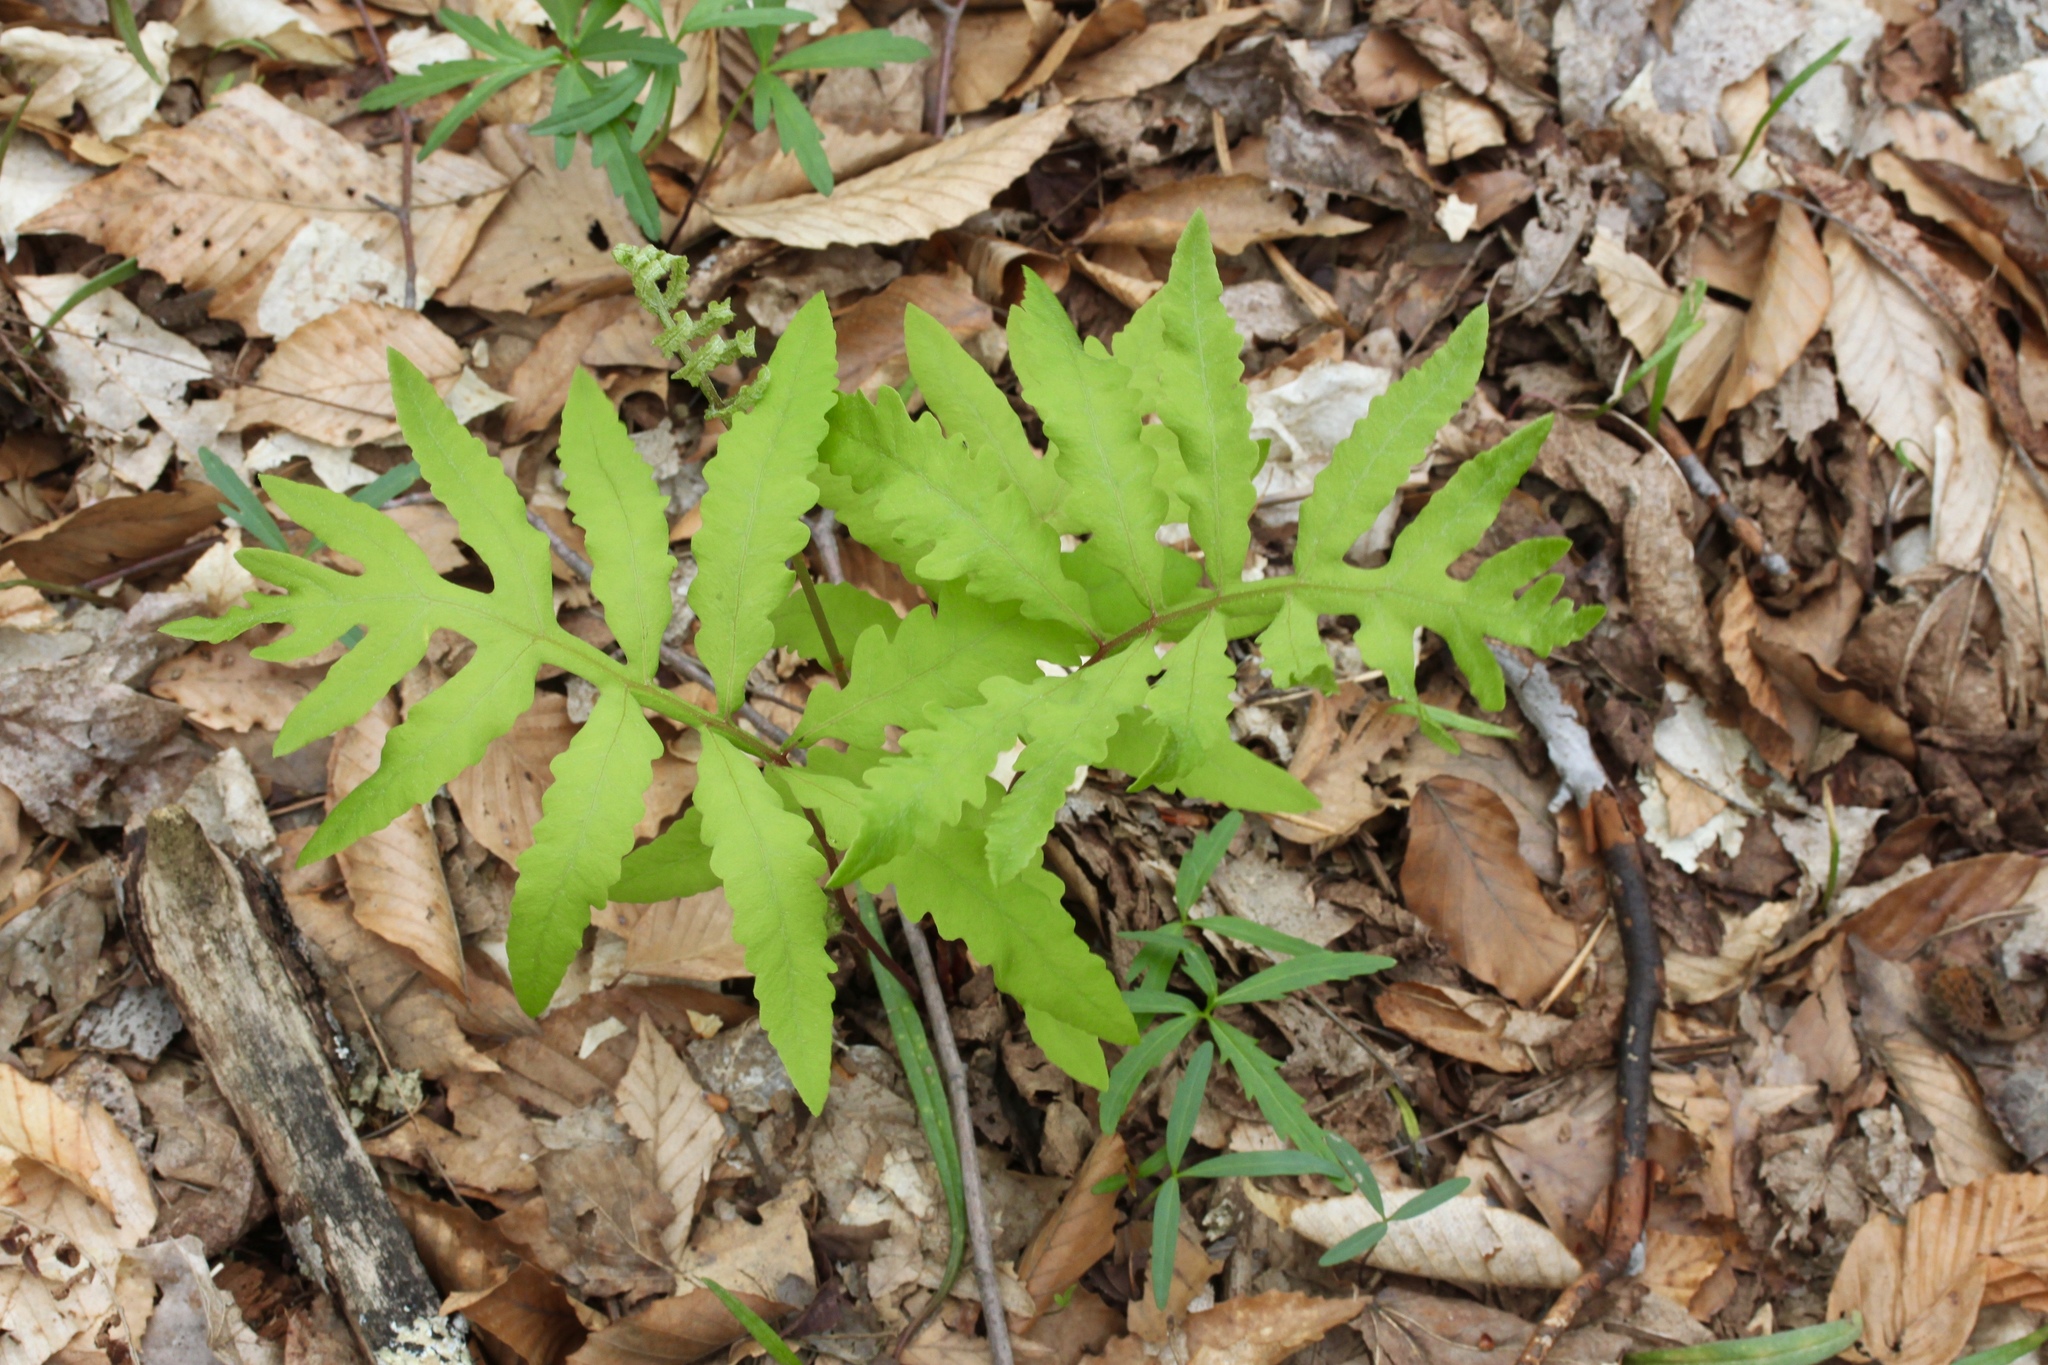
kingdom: Plantae
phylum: Tracheophyta
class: Polypodiopsida
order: Polypodiales
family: Onocleaceae
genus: Onoclea
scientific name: Onoclea sensibilis
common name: Sensitive fern
